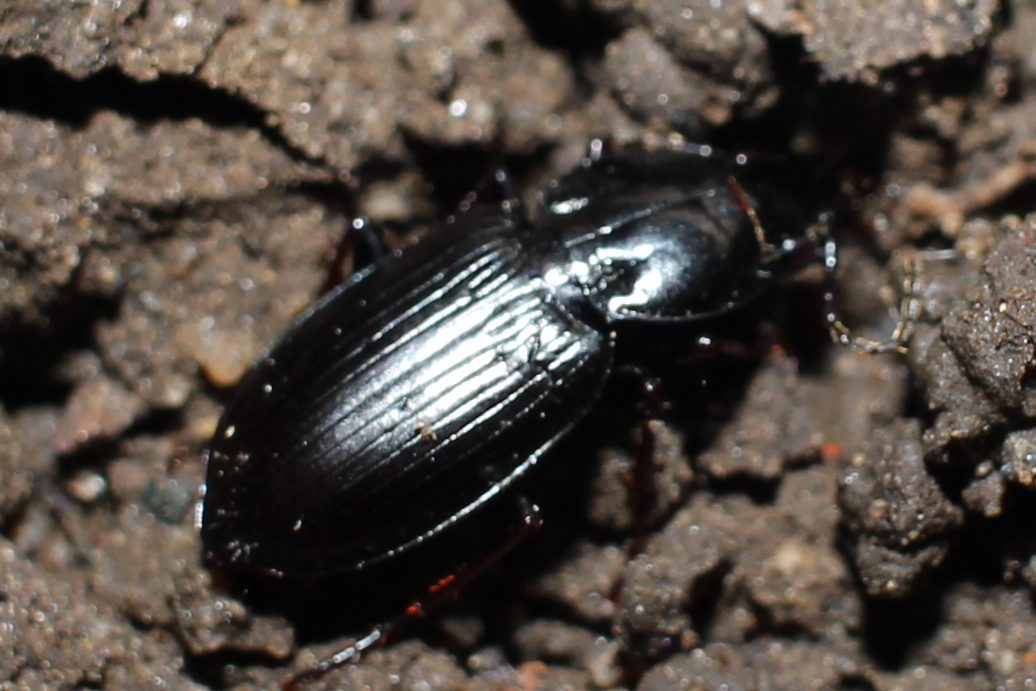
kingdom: Animalia
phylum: Arthropoda
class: Insecta
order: Coleoptera
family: Carabidae
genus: Pterostichus
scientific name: Pterostichus mutus
